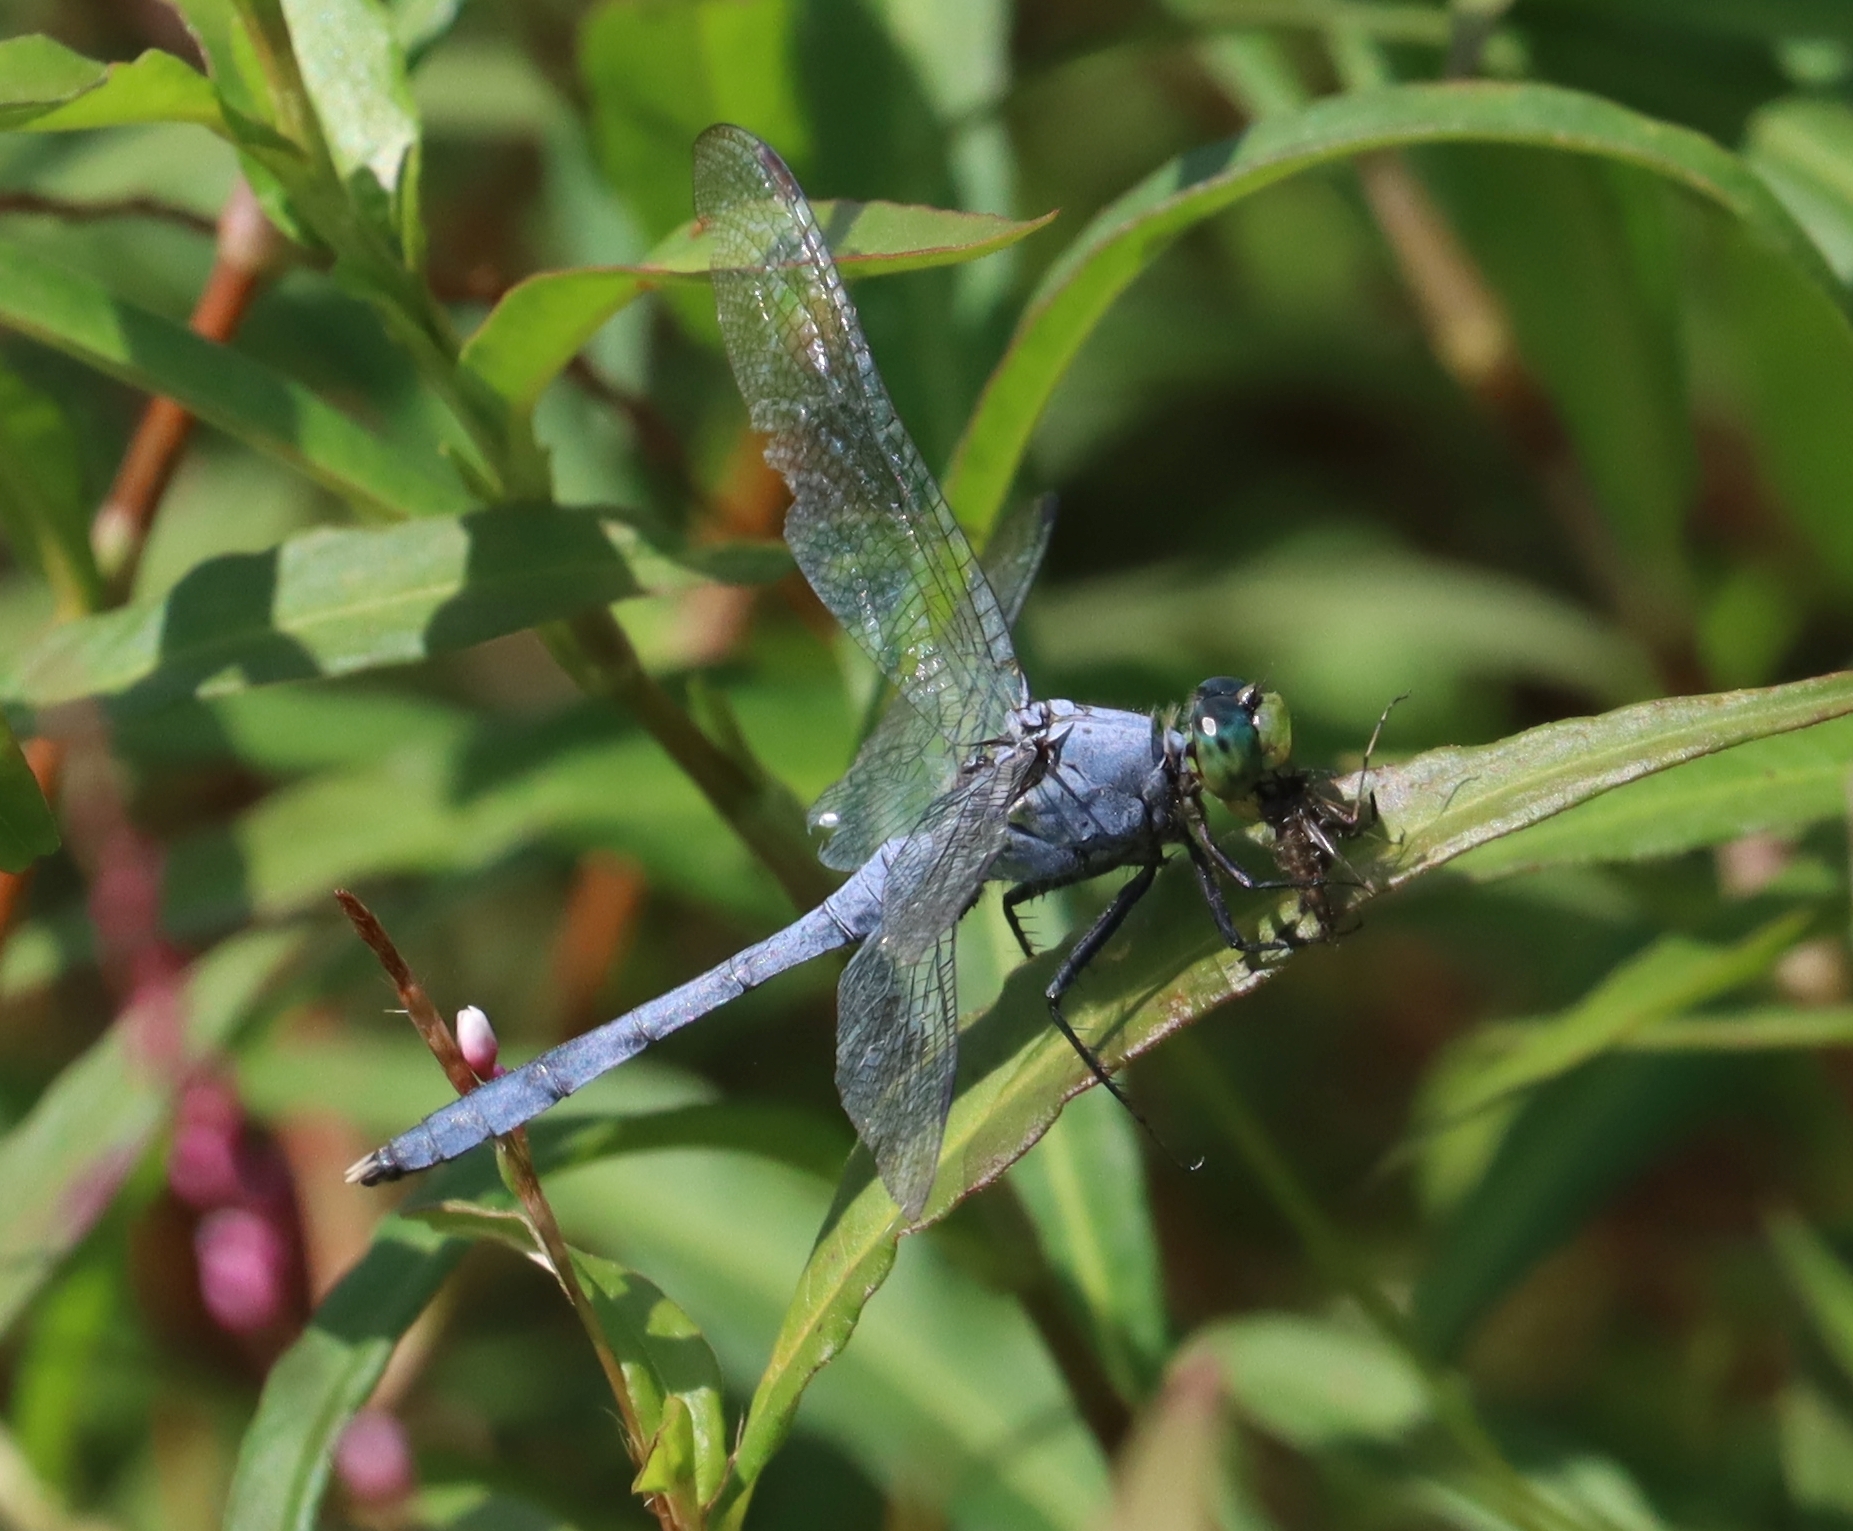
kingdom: Animalia
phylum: Arthropoda
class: Insecta
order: Odonata
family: Libellulidae
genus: Erythemis
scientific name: Erythemis simplicicollis
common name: Eastern pondhawk
